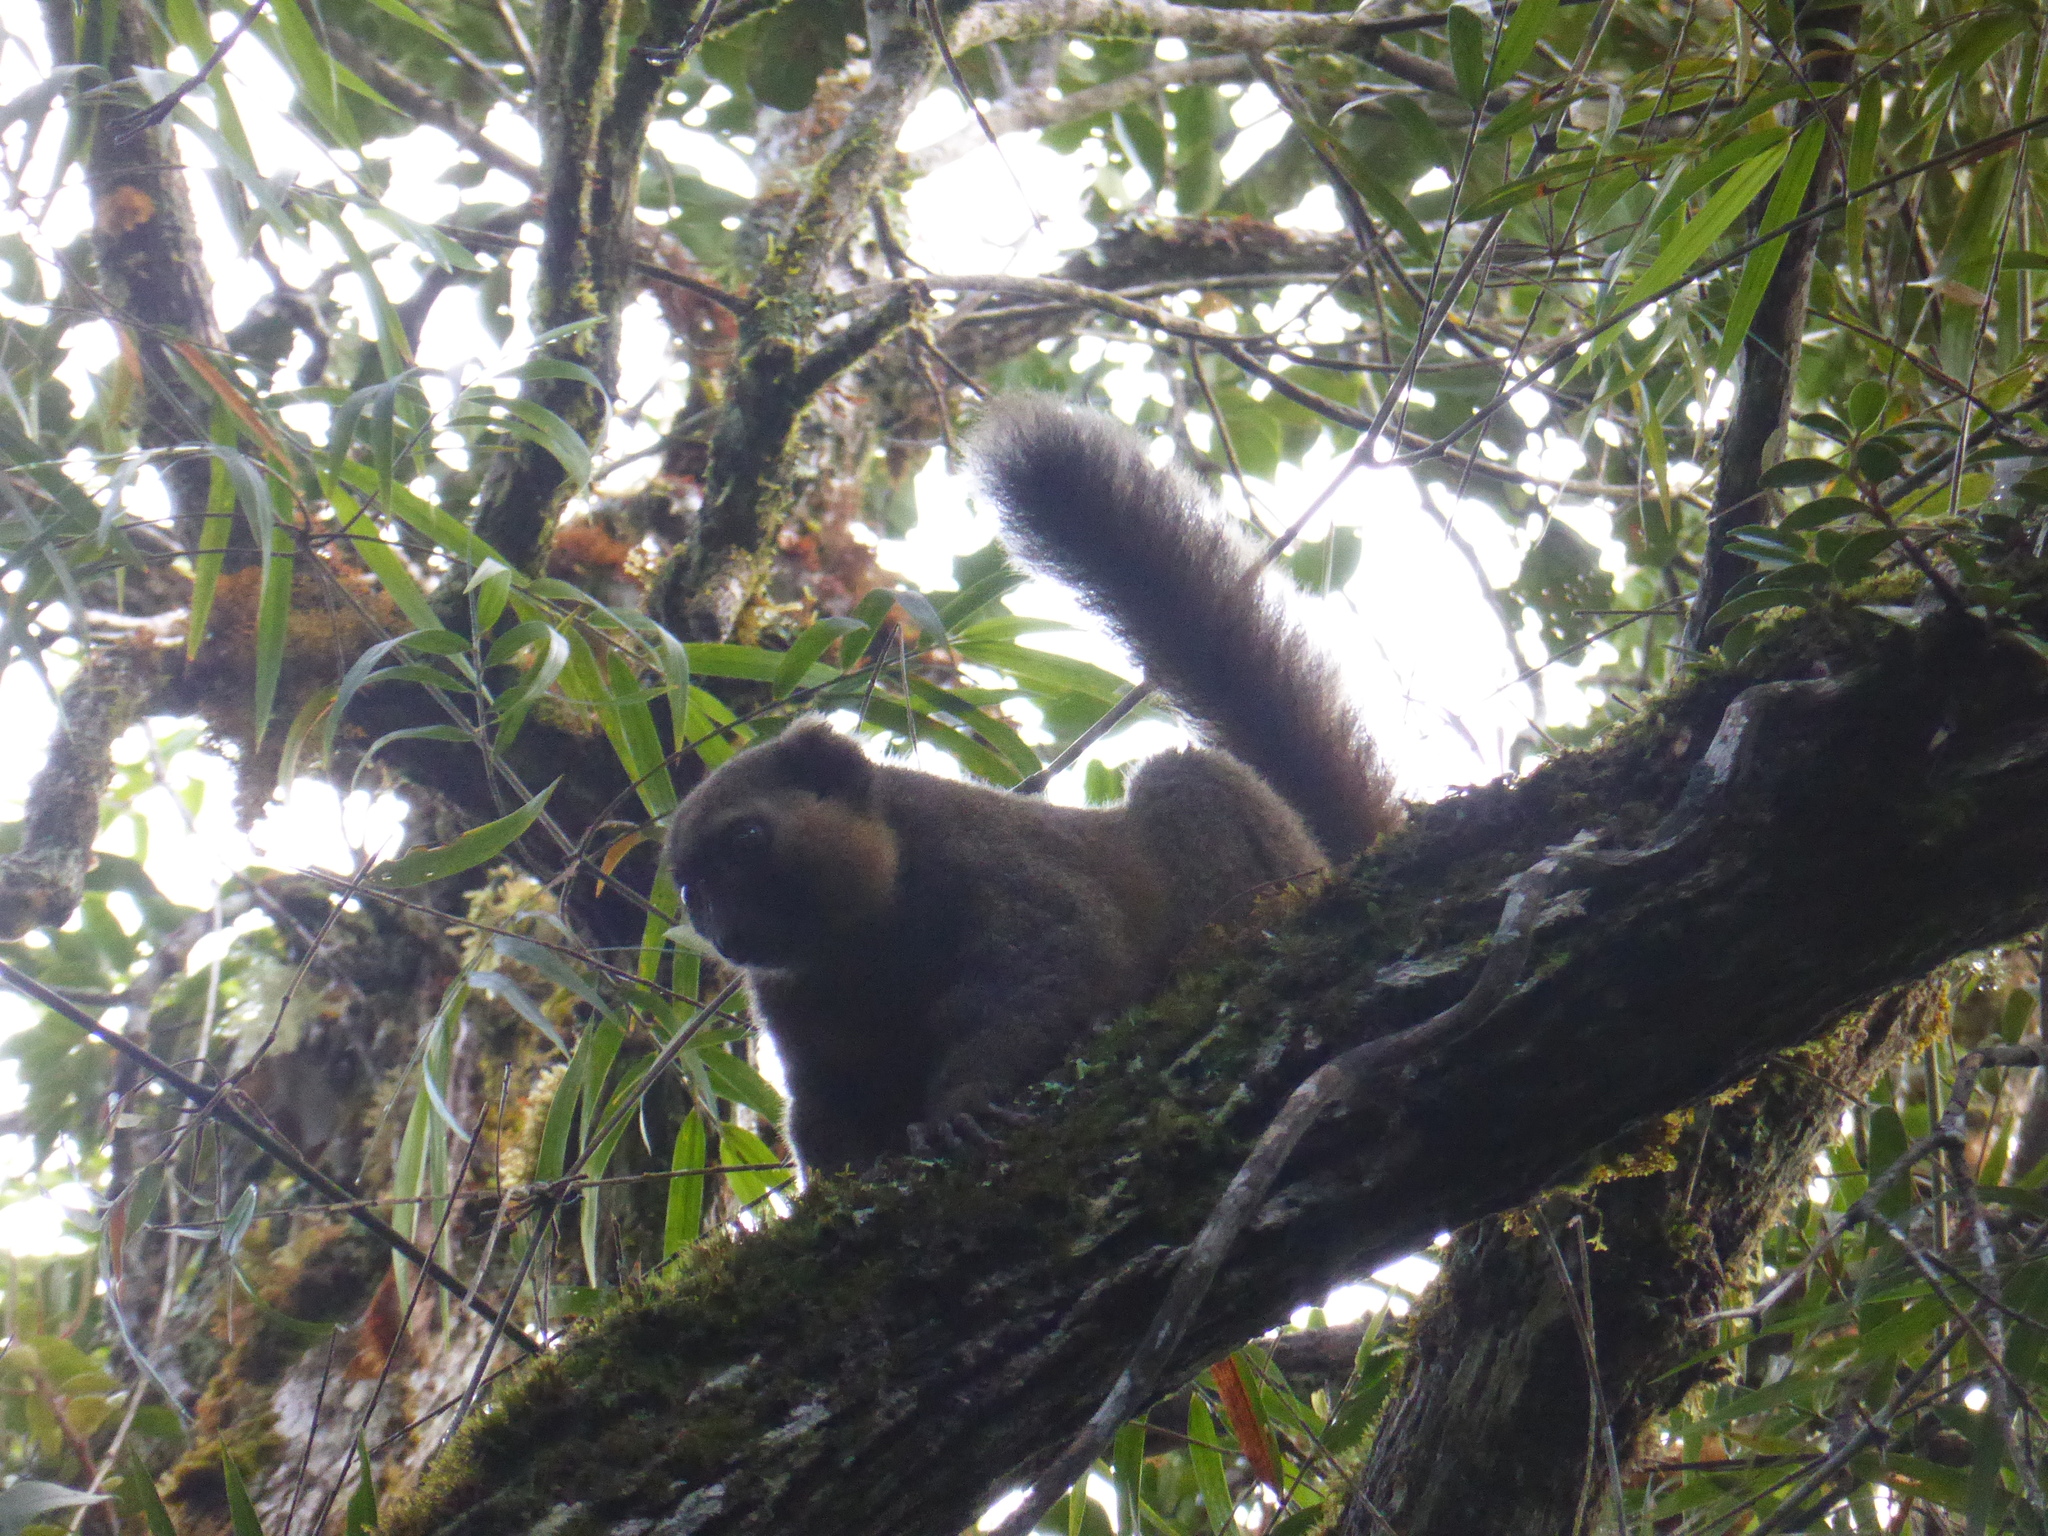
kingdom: Animalia
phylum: Chordata
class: Mammalia
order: Primates
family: Lemuridae
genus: Hapalemur
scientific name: Hapalemur aureus
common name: Golden bamboo lemur
